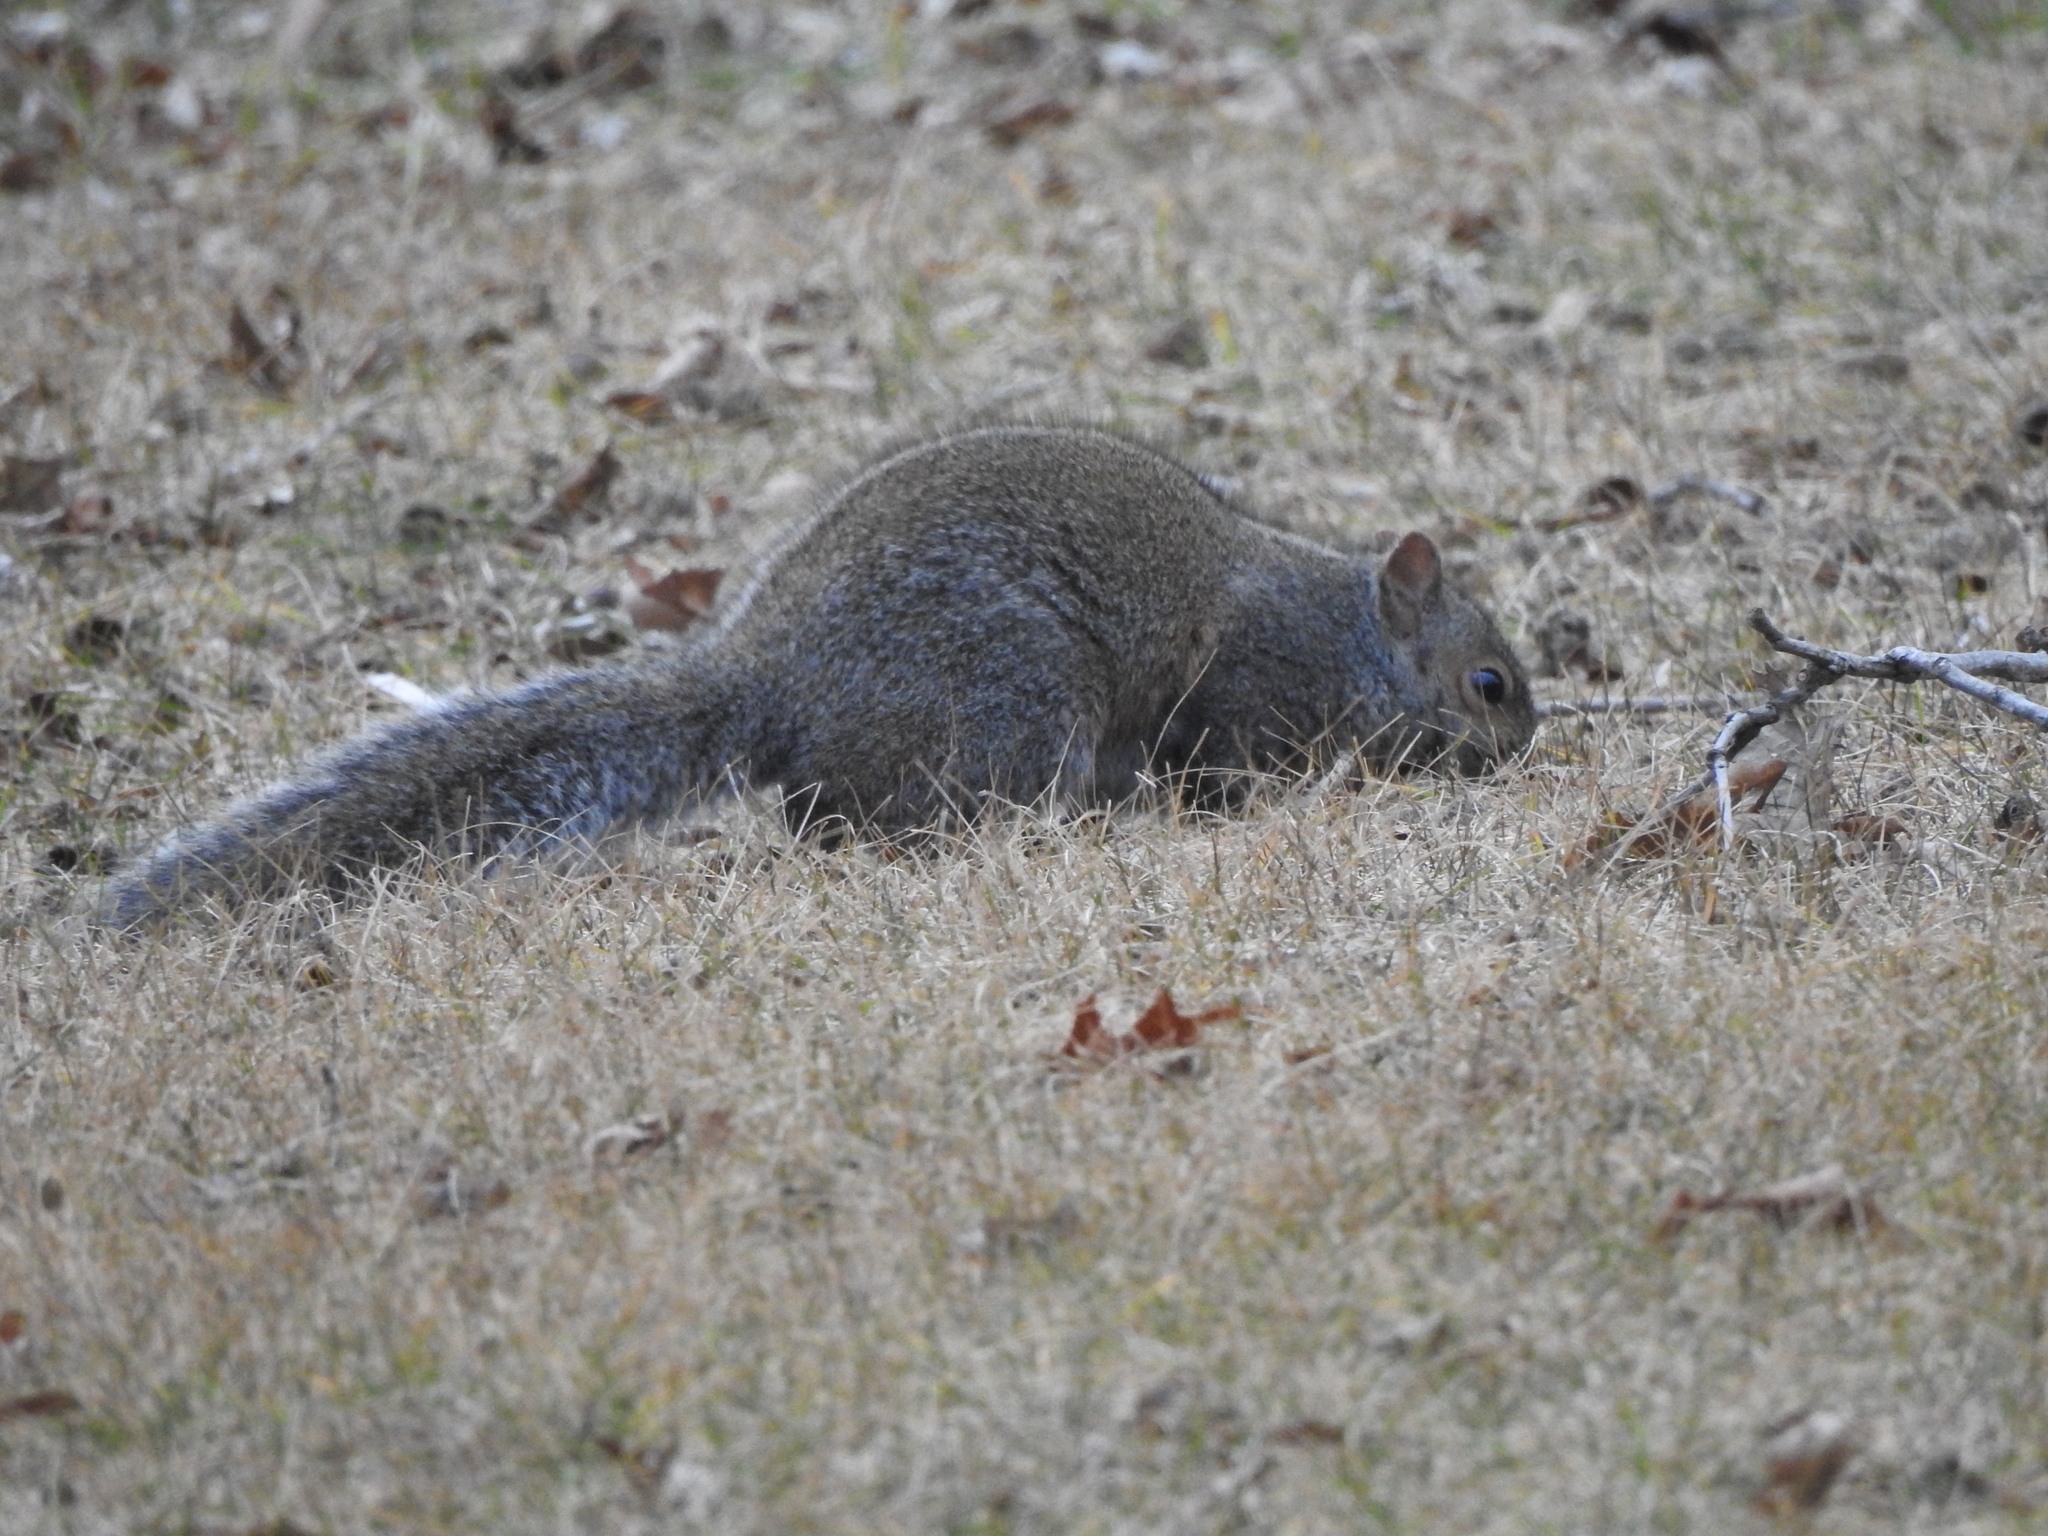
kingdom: Animalia
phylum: Chordata
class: Mammalia
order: Rodentia
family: Sciuridae
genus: Sciurus
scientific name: Sciurus carolinensis
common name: Eastern gray squirrel
